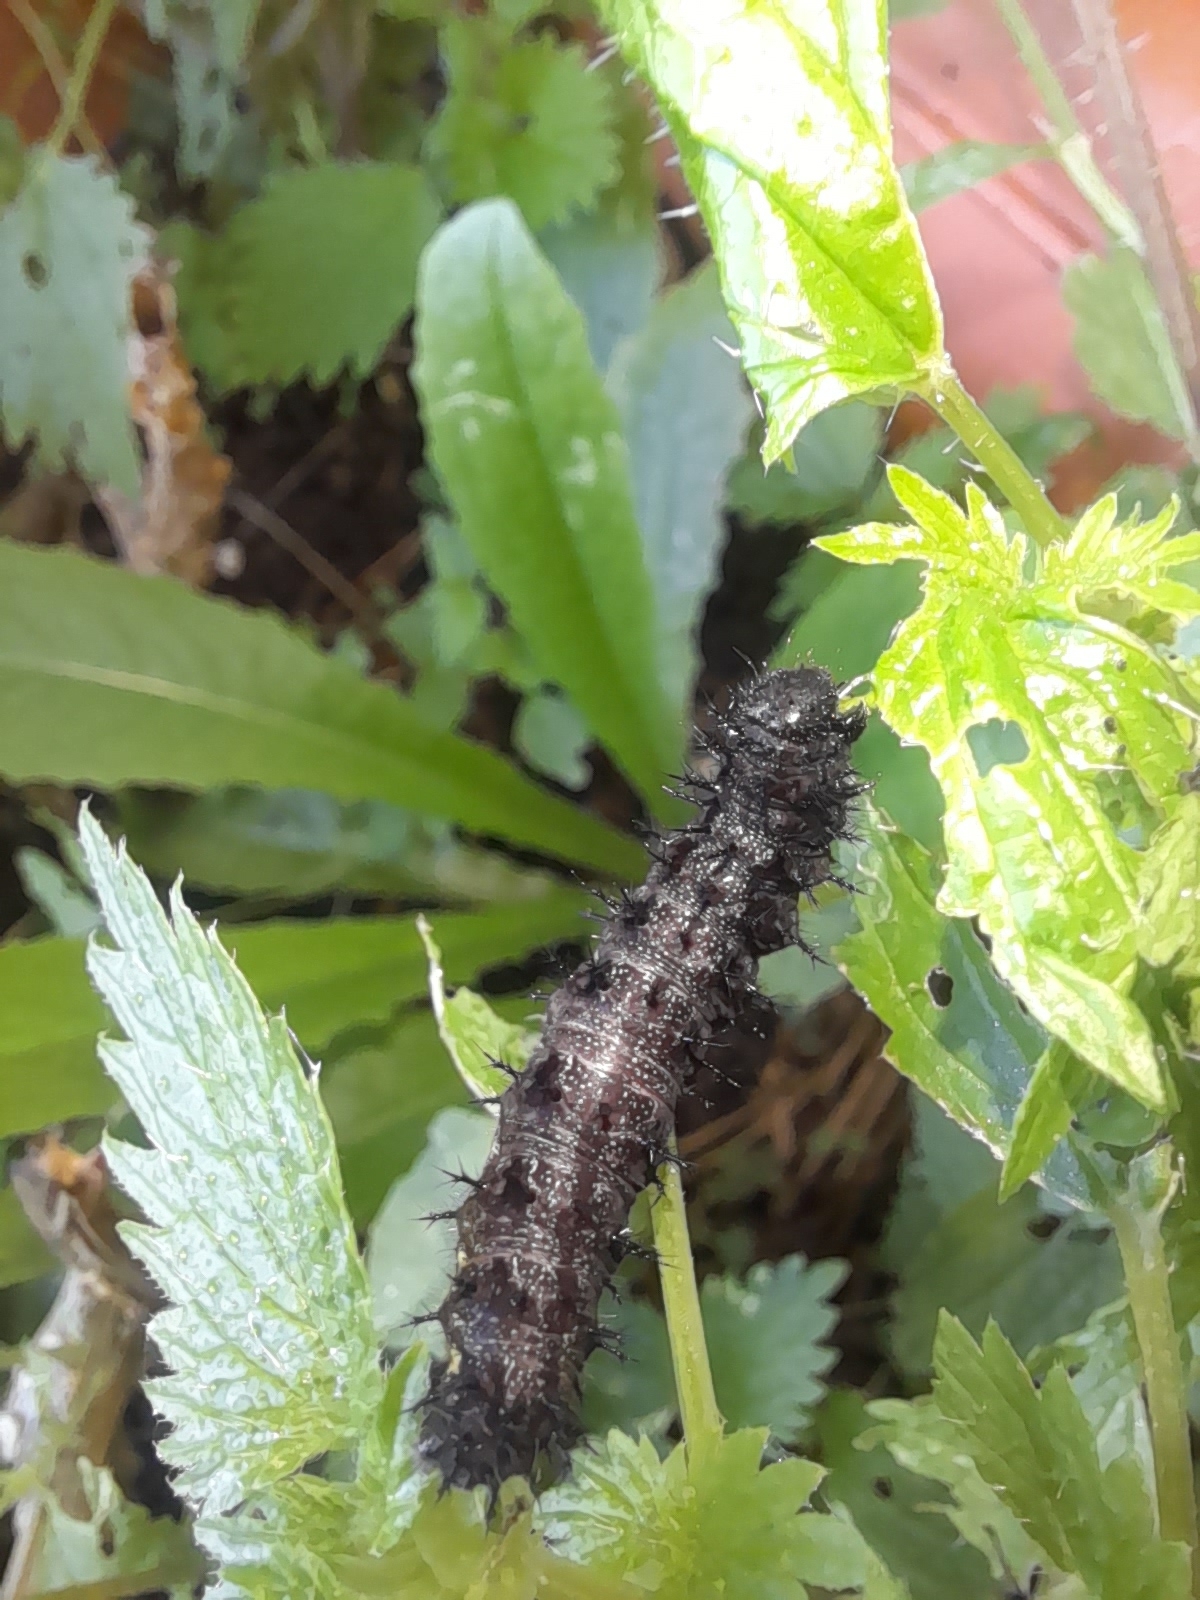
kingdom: Animalia
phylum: Arthropoda
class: Insecta
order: Lepidoptera
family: Nymphalidae
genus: Vanessa
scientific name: Vanessa atalanta
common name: Red admiral
